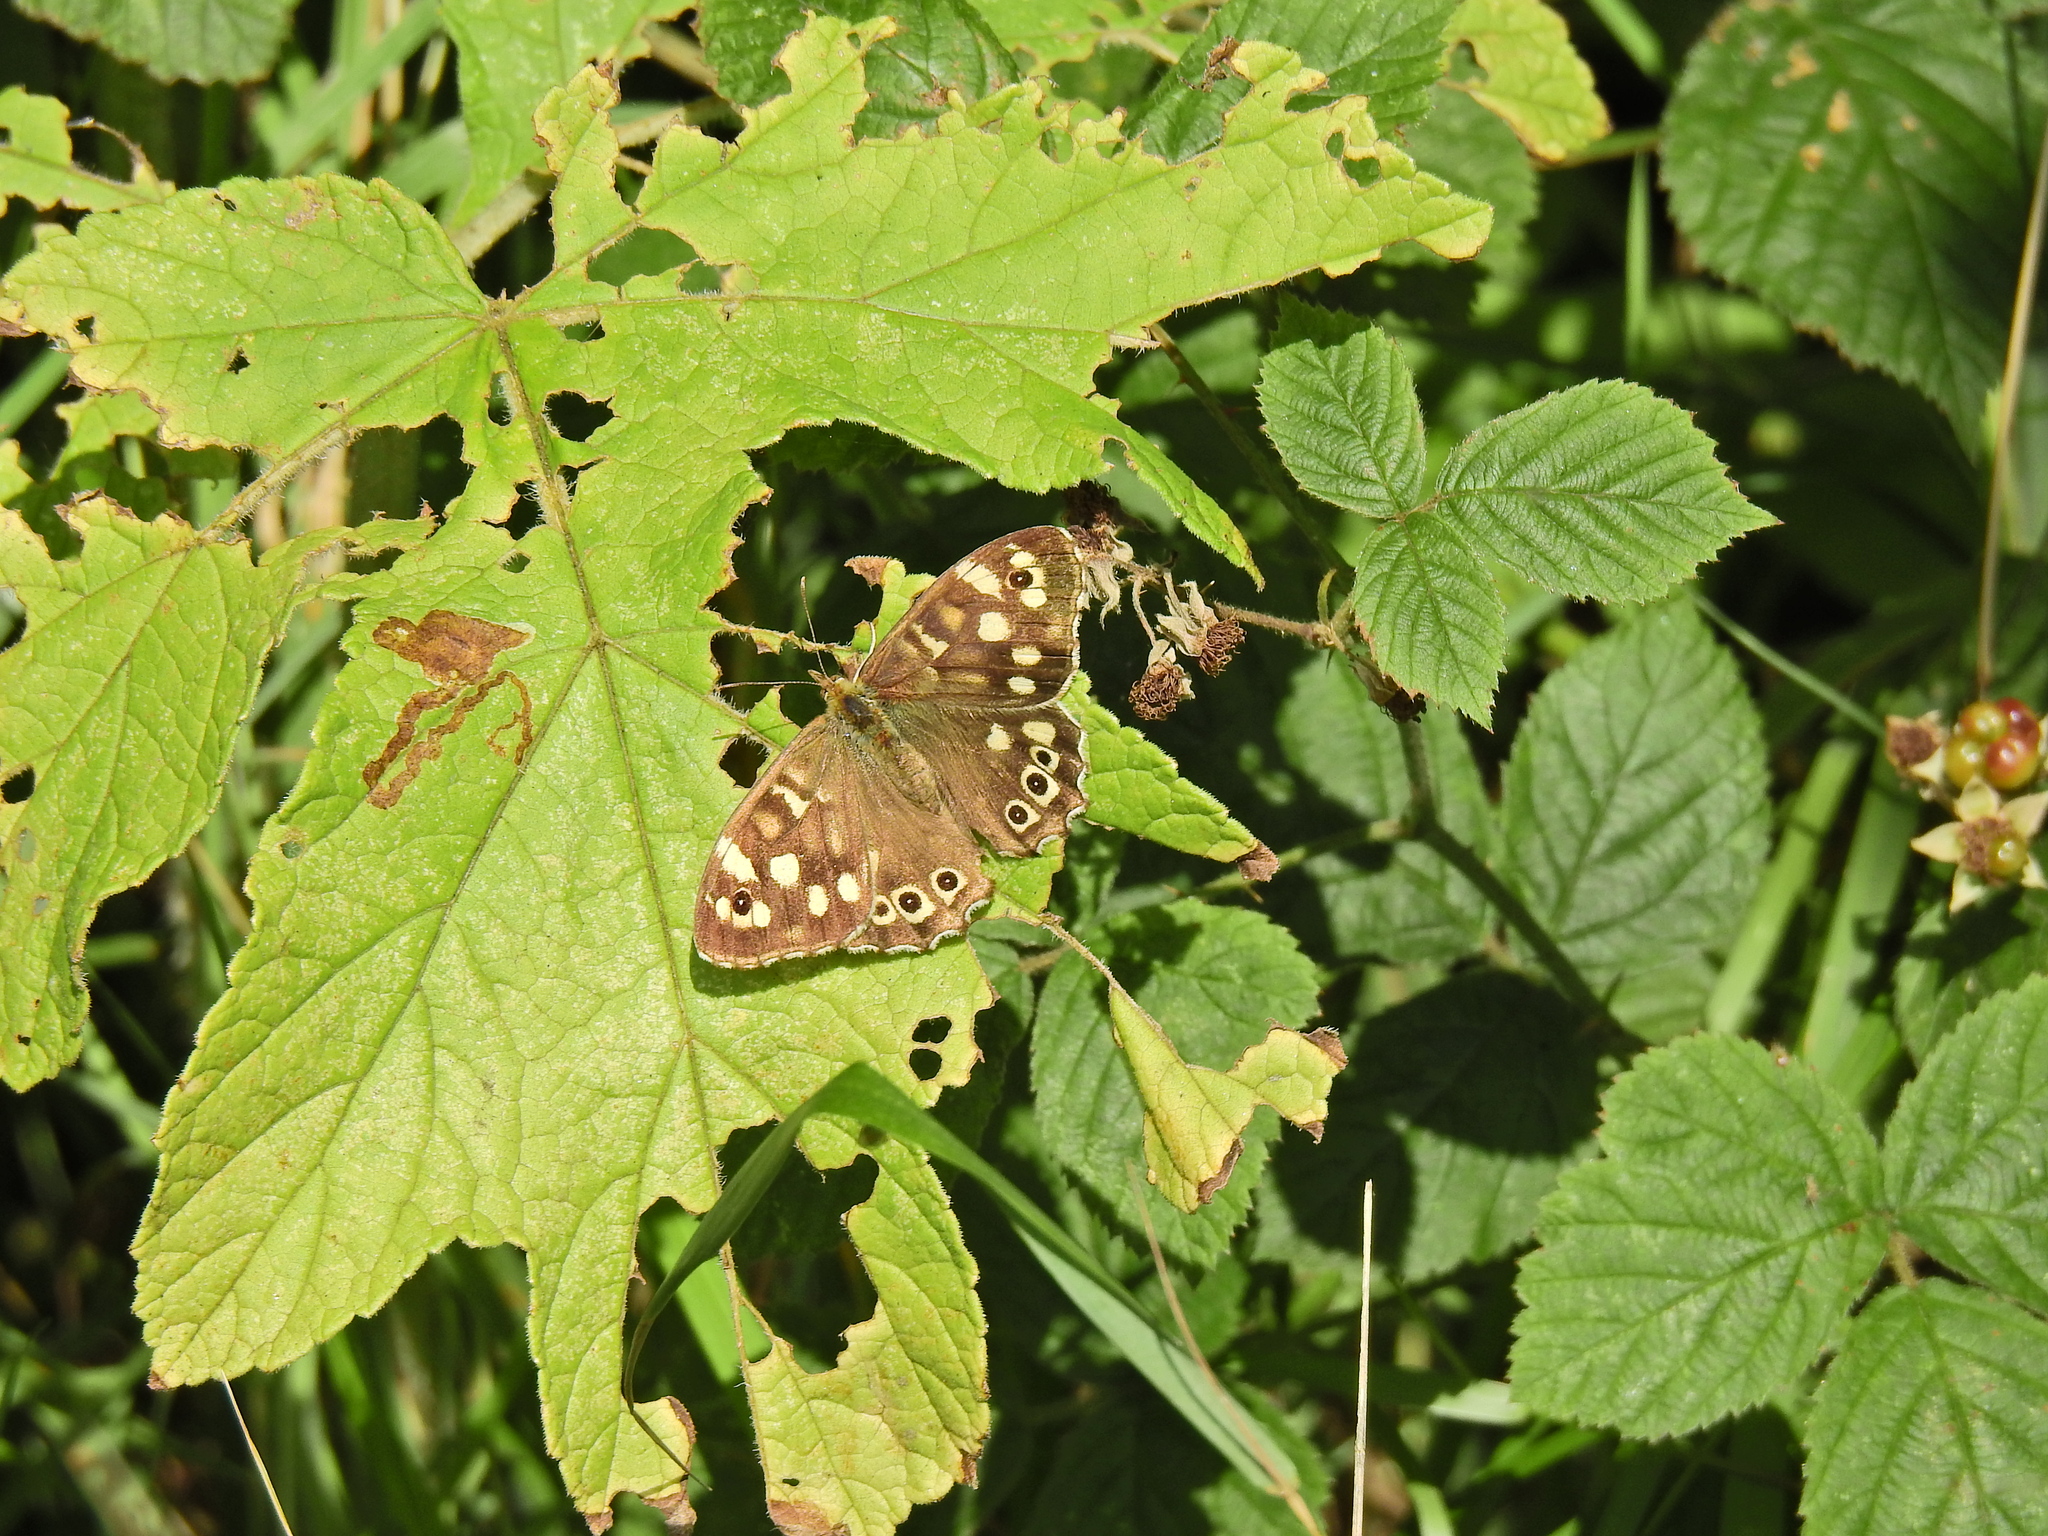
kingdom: Animalia
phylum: Arthropoda
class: Insecta
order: Lepidoptera
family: Nymphalidae
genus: Pararge
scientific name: Pararge aegeria
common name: Speckled wood
